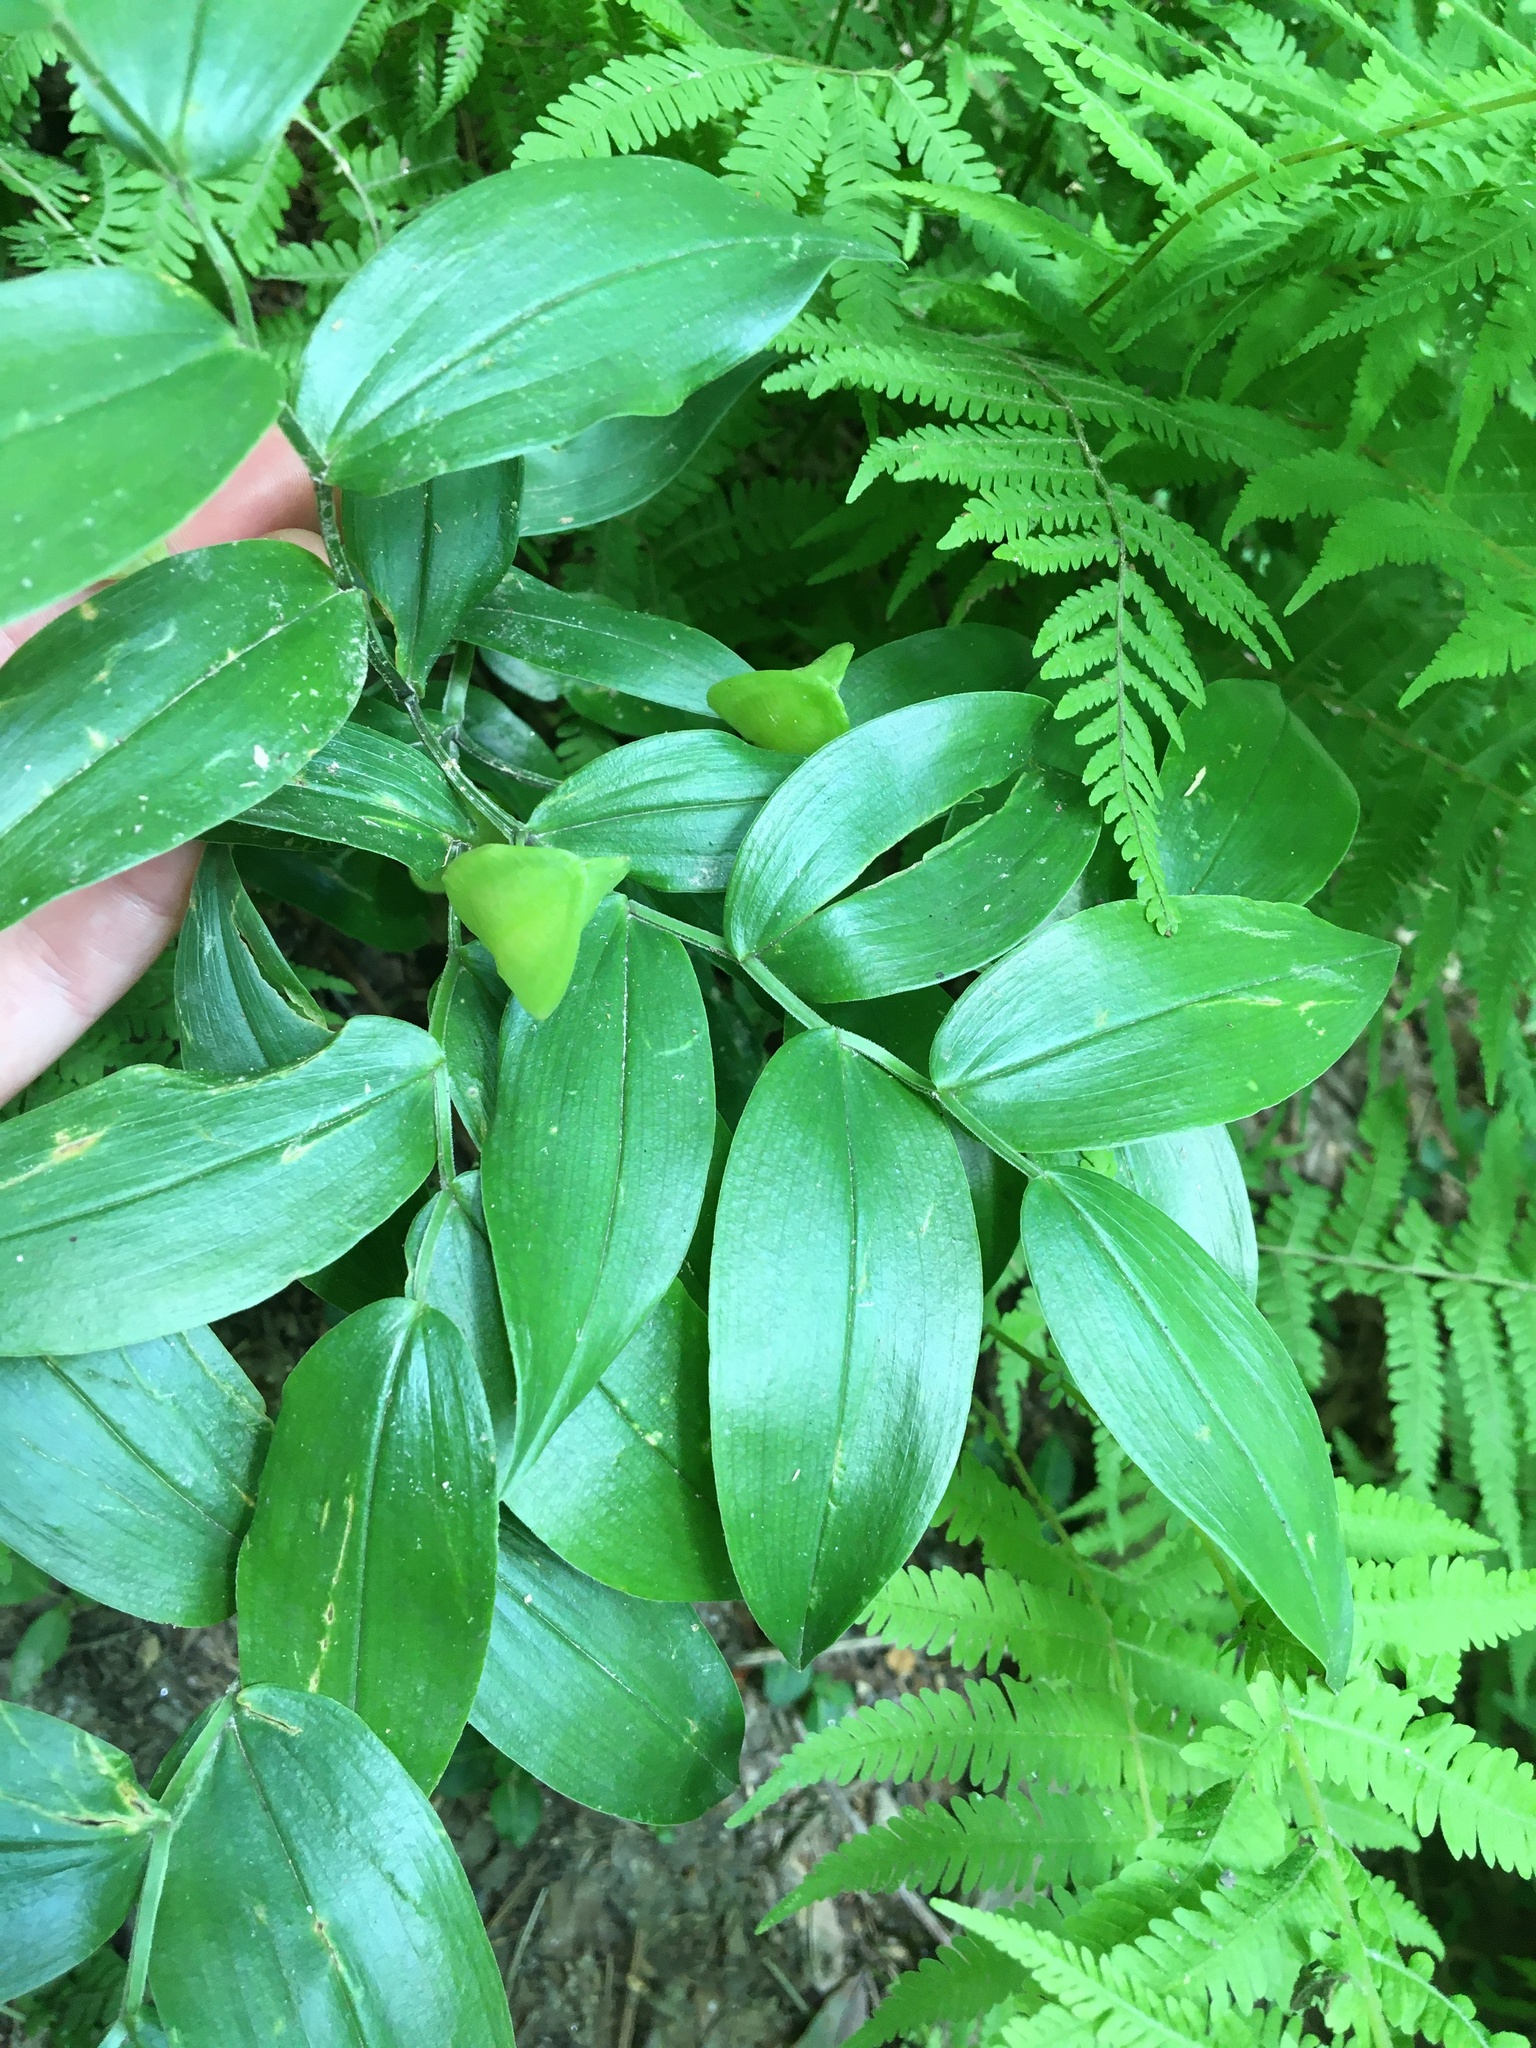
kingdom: Plantae
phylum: Tracheophyta
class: Liliopsida
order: Liliales
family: Colchicaceae
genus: Uvularia
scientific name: Uvularia puberula
